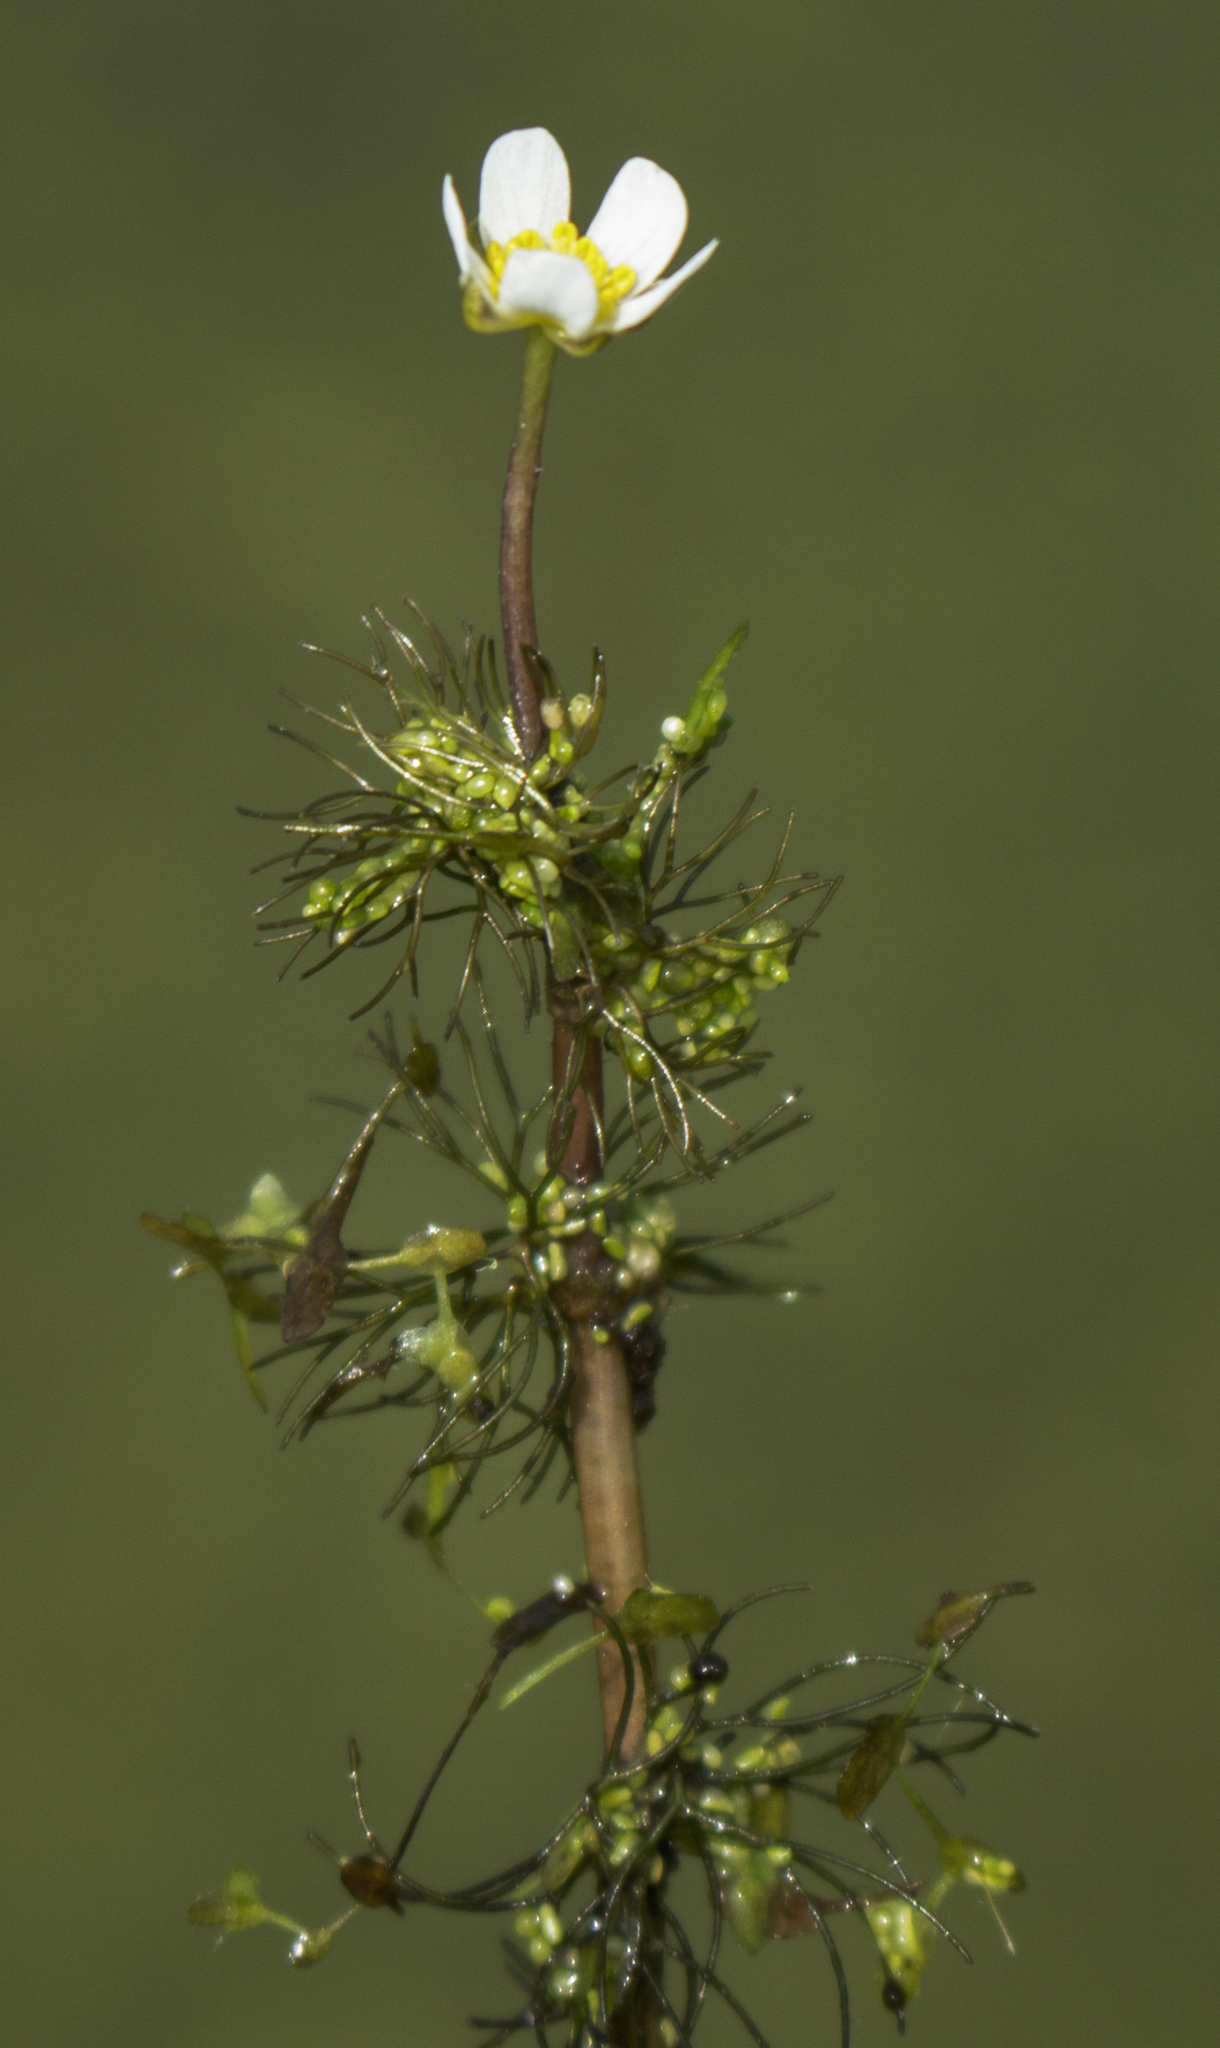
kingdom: Plantae
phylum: Tracheophyta
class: Magnoliopsida
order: Ranunculales
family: Ranunculaceae
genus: Ranunculus
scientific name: Ranunculus aquatilis
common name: Common water-crowfoot
